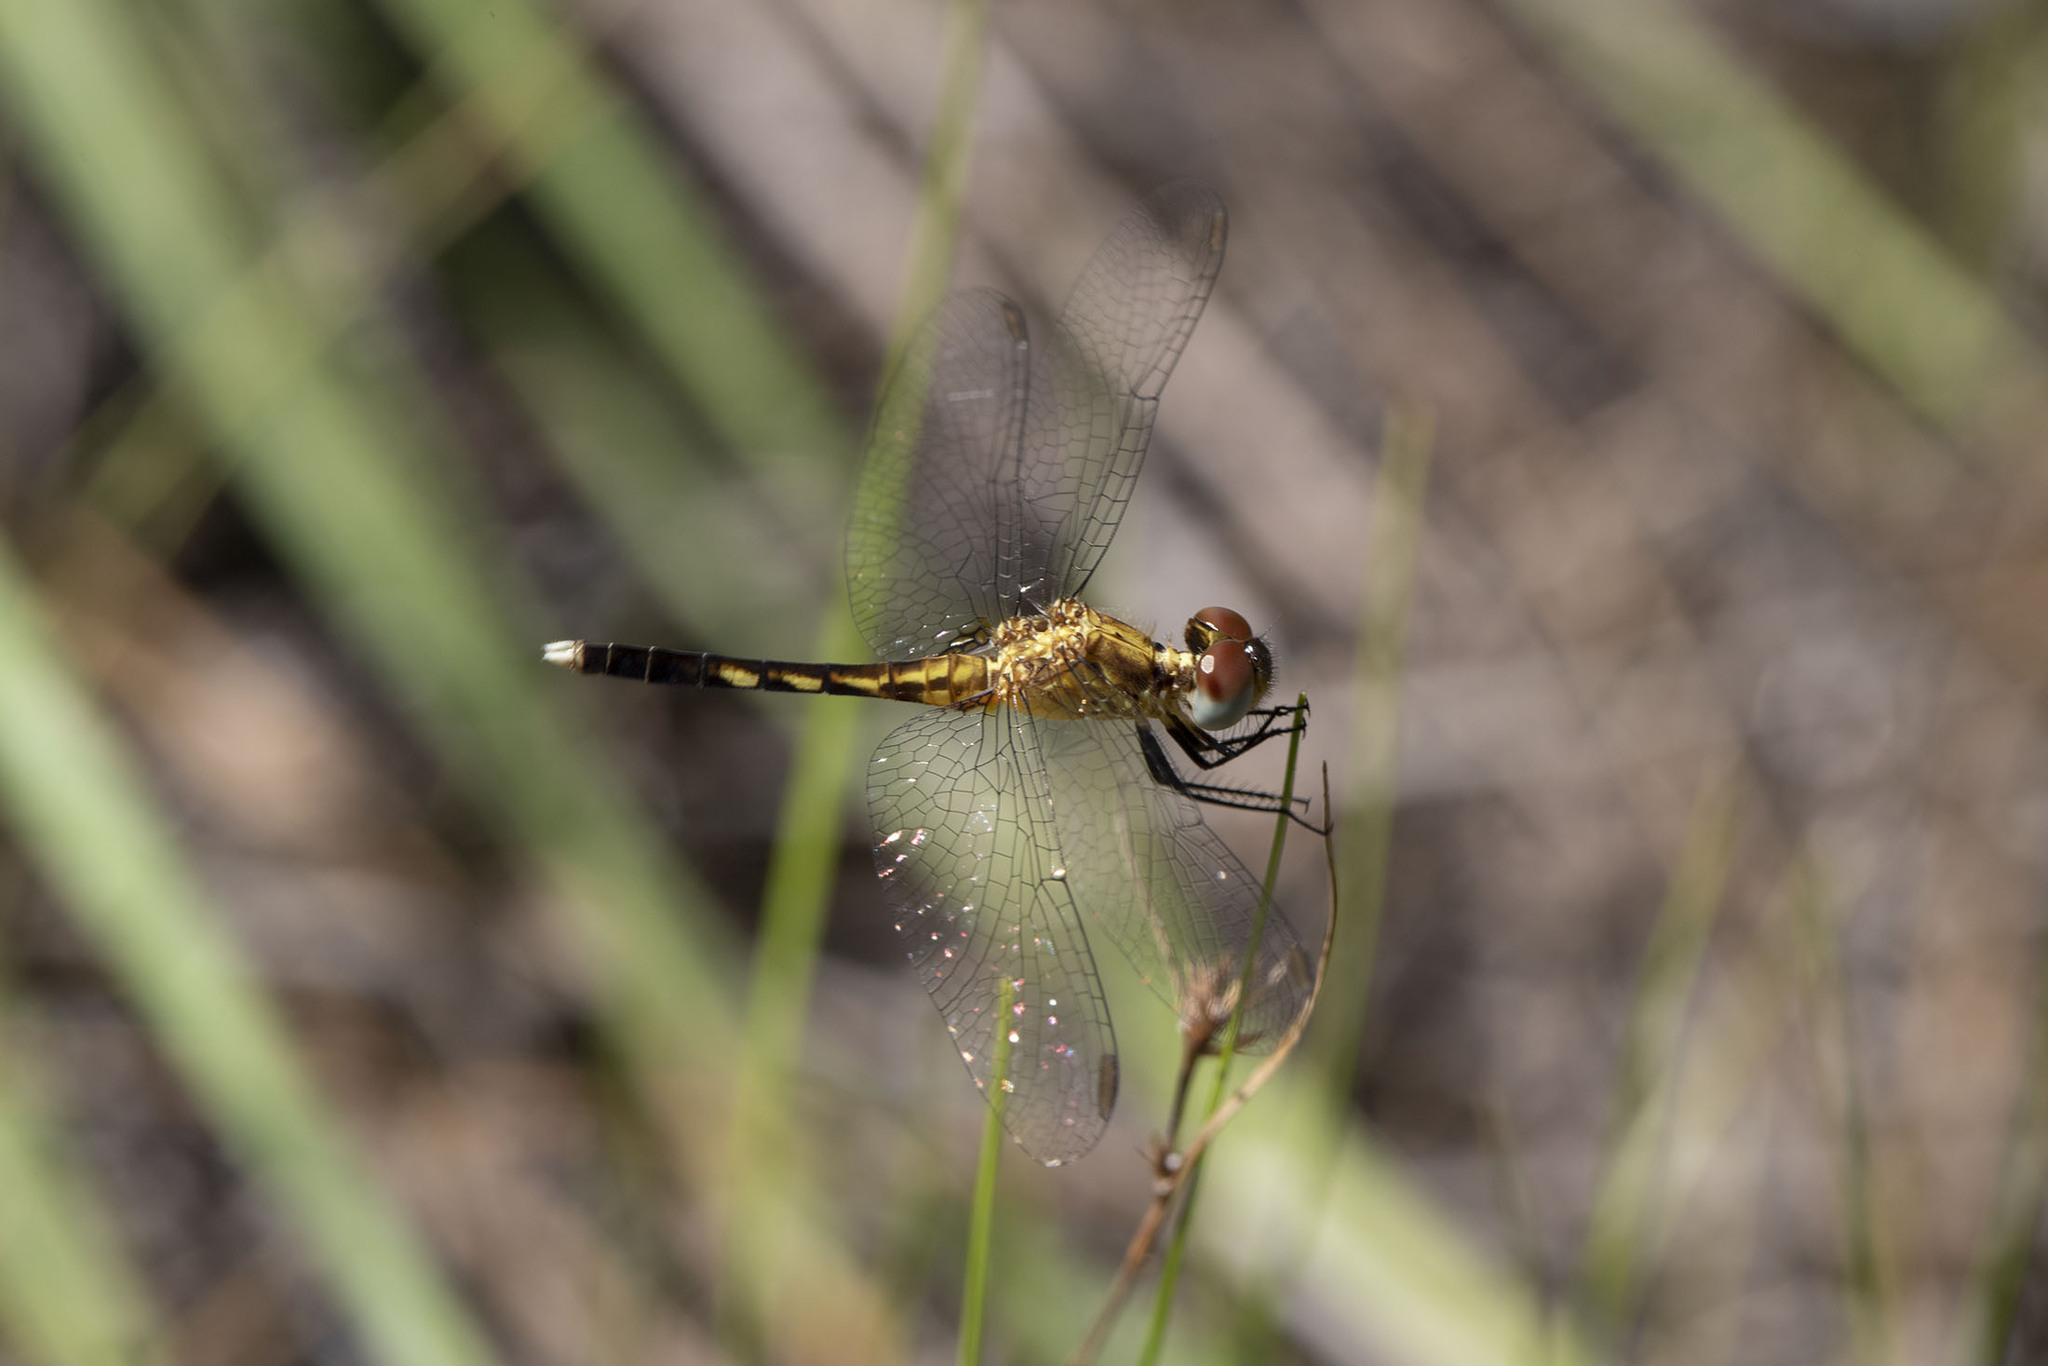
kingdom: Animalia
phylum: Arthropoda
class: Insecta
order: Odonata
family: Libellulidae
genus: Erythrodiplax
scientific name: Erythrodiplax minuscula
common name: Little blue dragonlet
